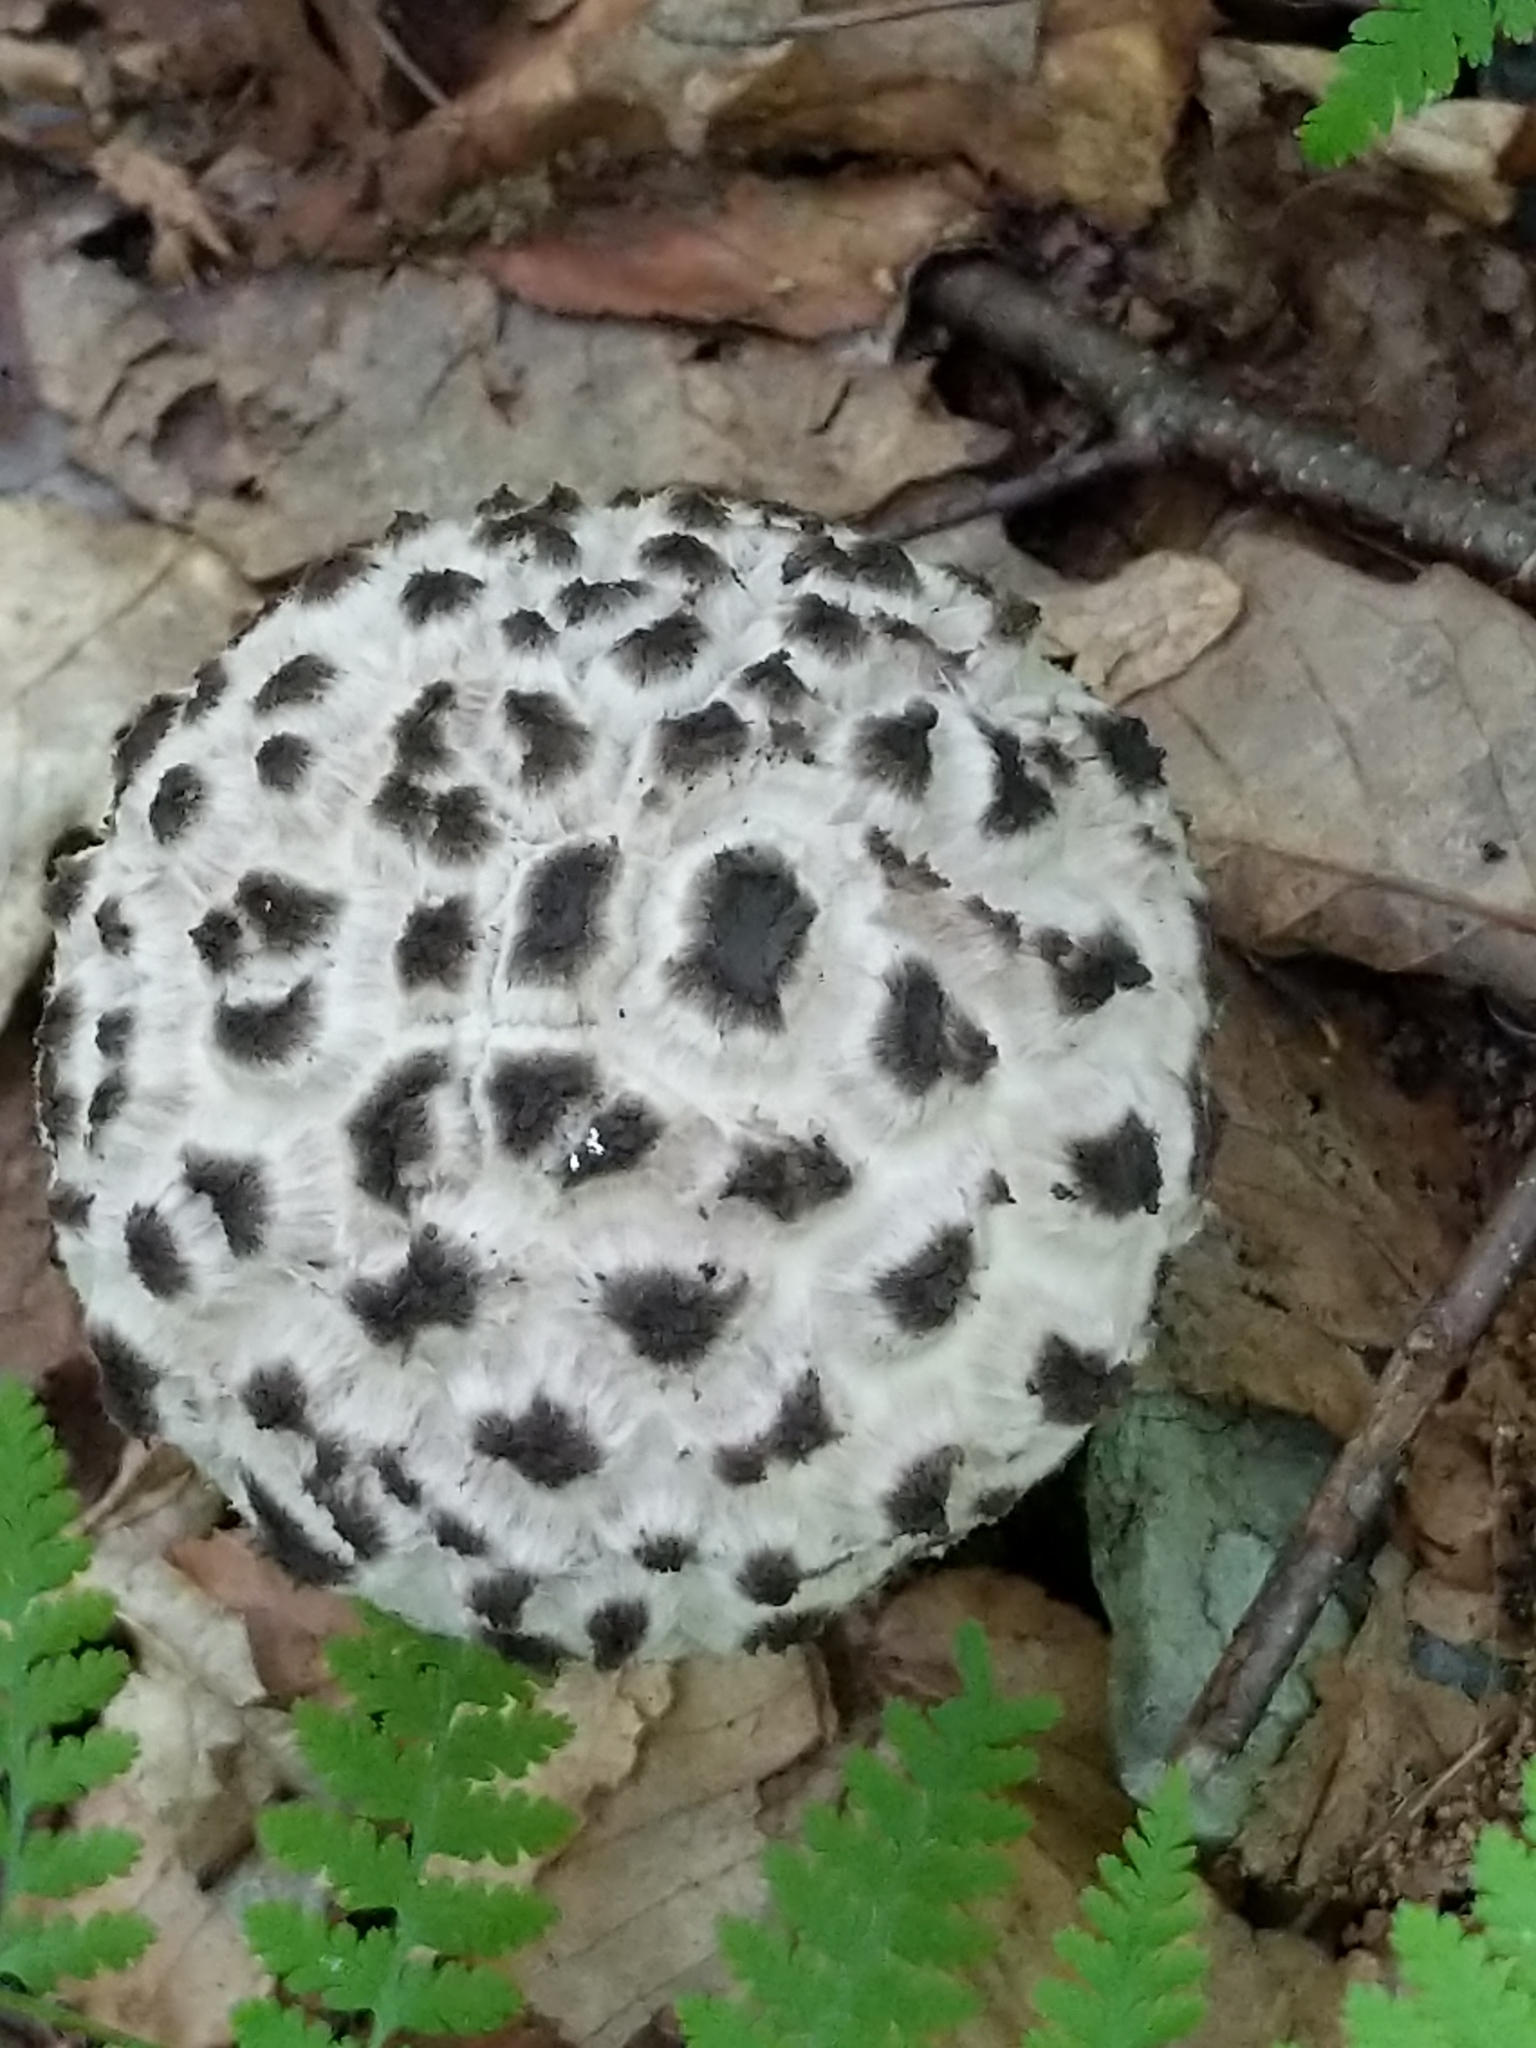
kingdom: Fungi
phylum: Basidiomycota
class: Agaricomycetes
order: Boletales
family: Boletaceae
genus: Strobilomyces
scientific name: Strobilomyces strobilaceus
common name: Old man of the woods
